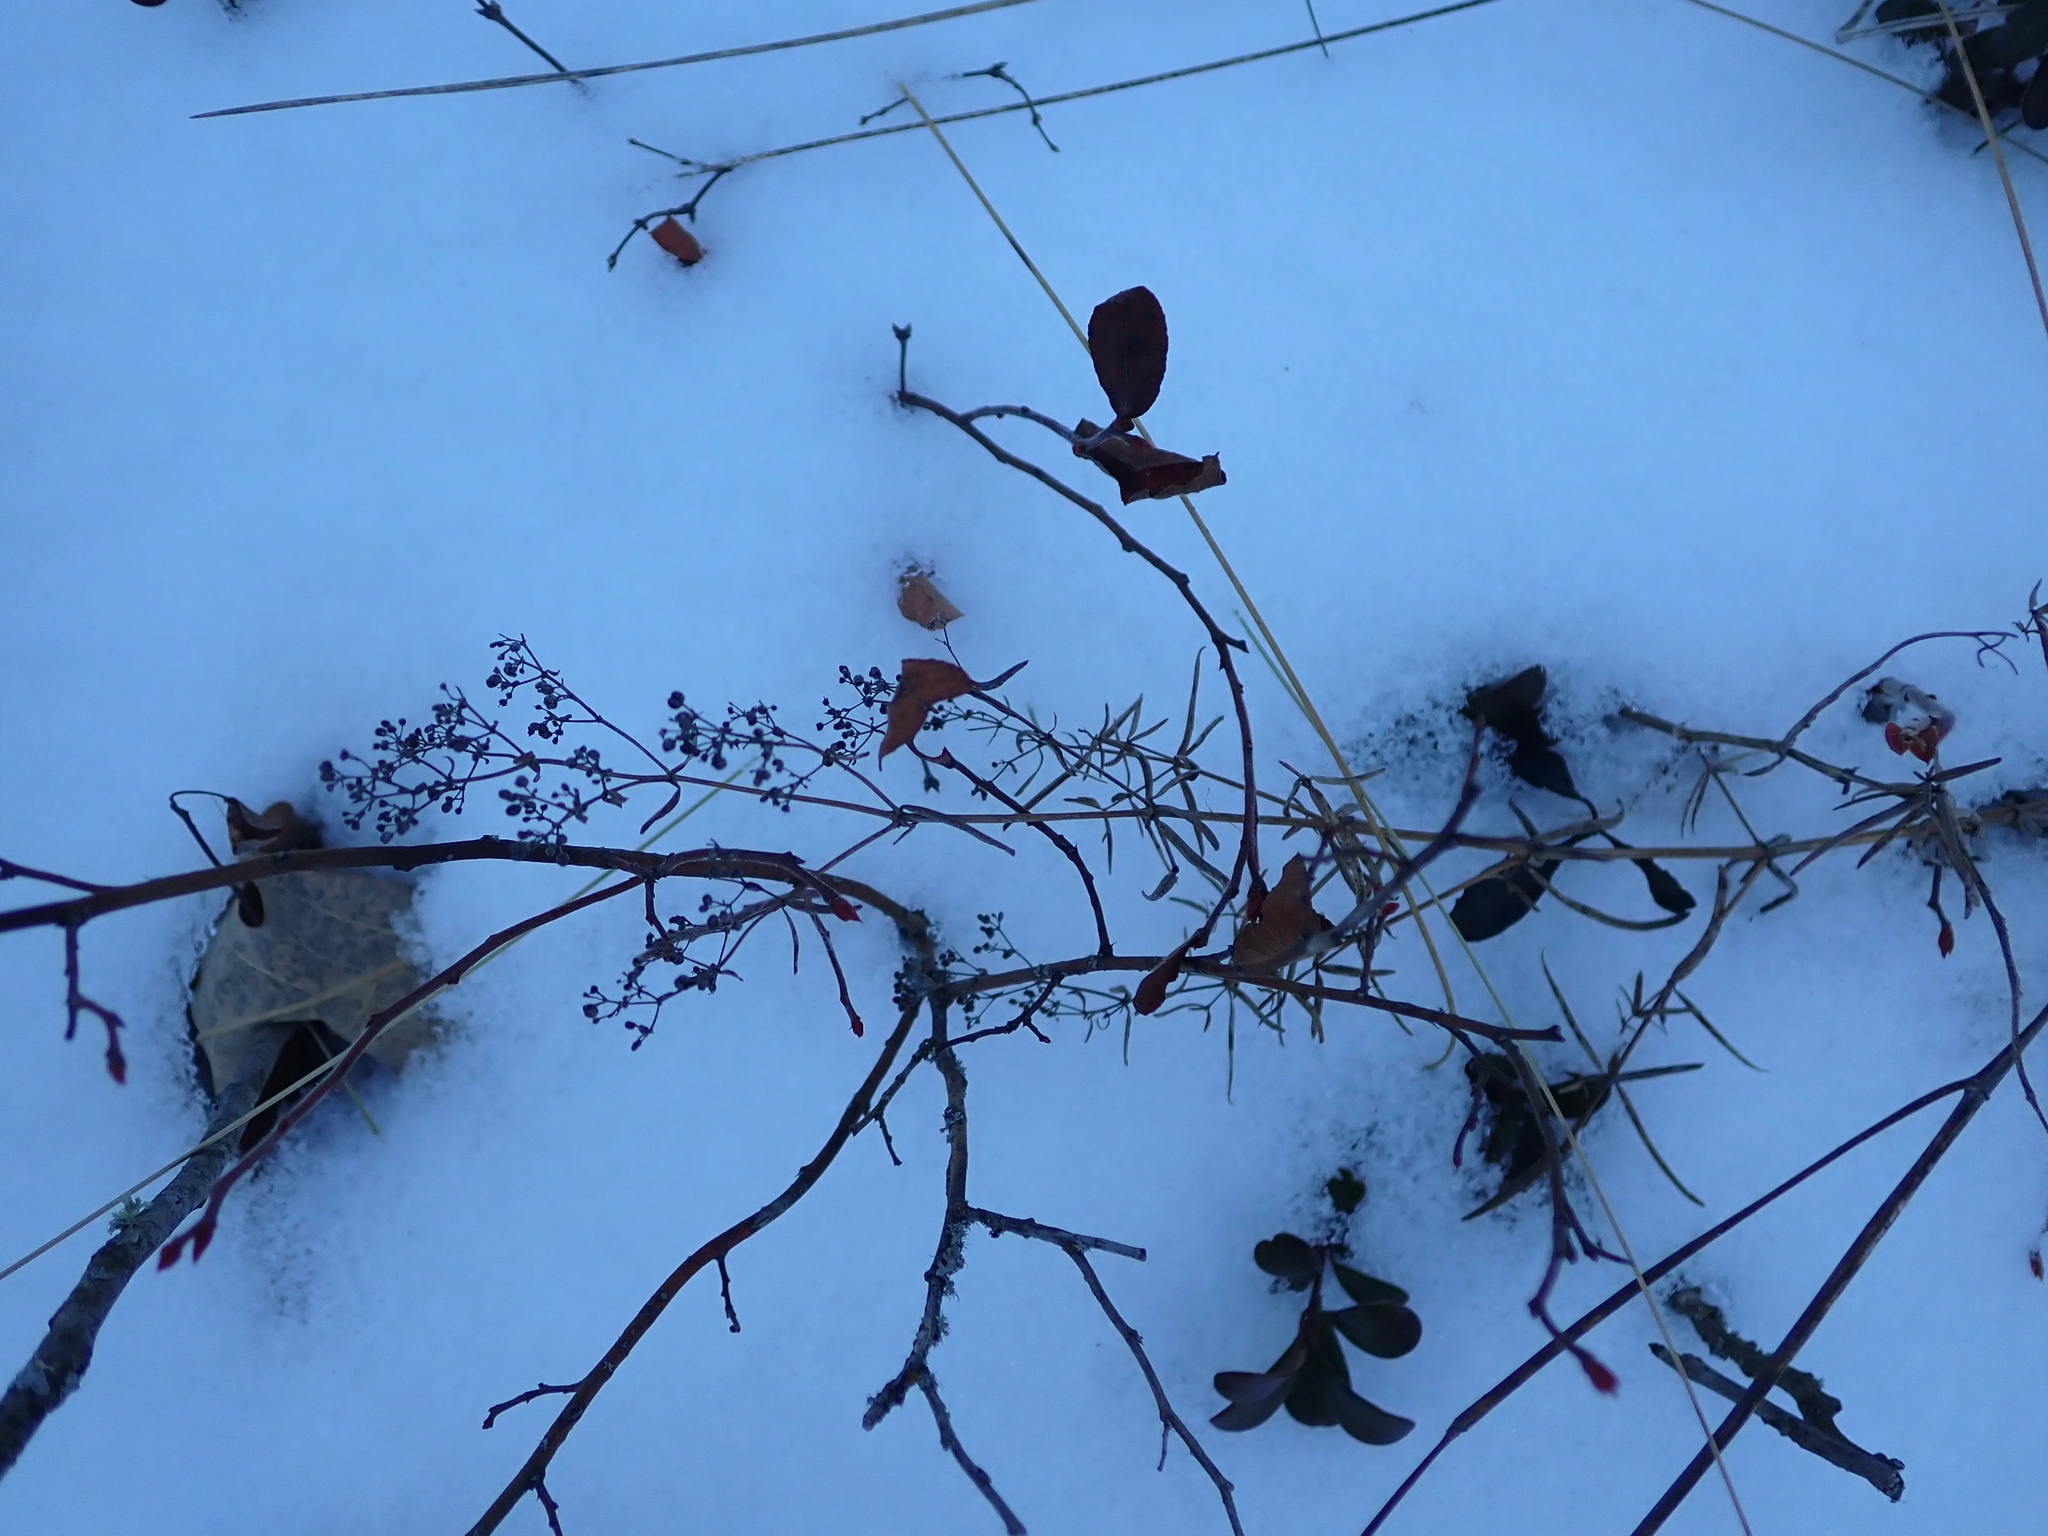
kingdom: Plantae
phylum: Tracheophyta
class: Magnoliopsida
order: Gentianales
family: Rubiaceae
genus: Galium
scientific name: Galium boreale
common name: Northern bedstraw
